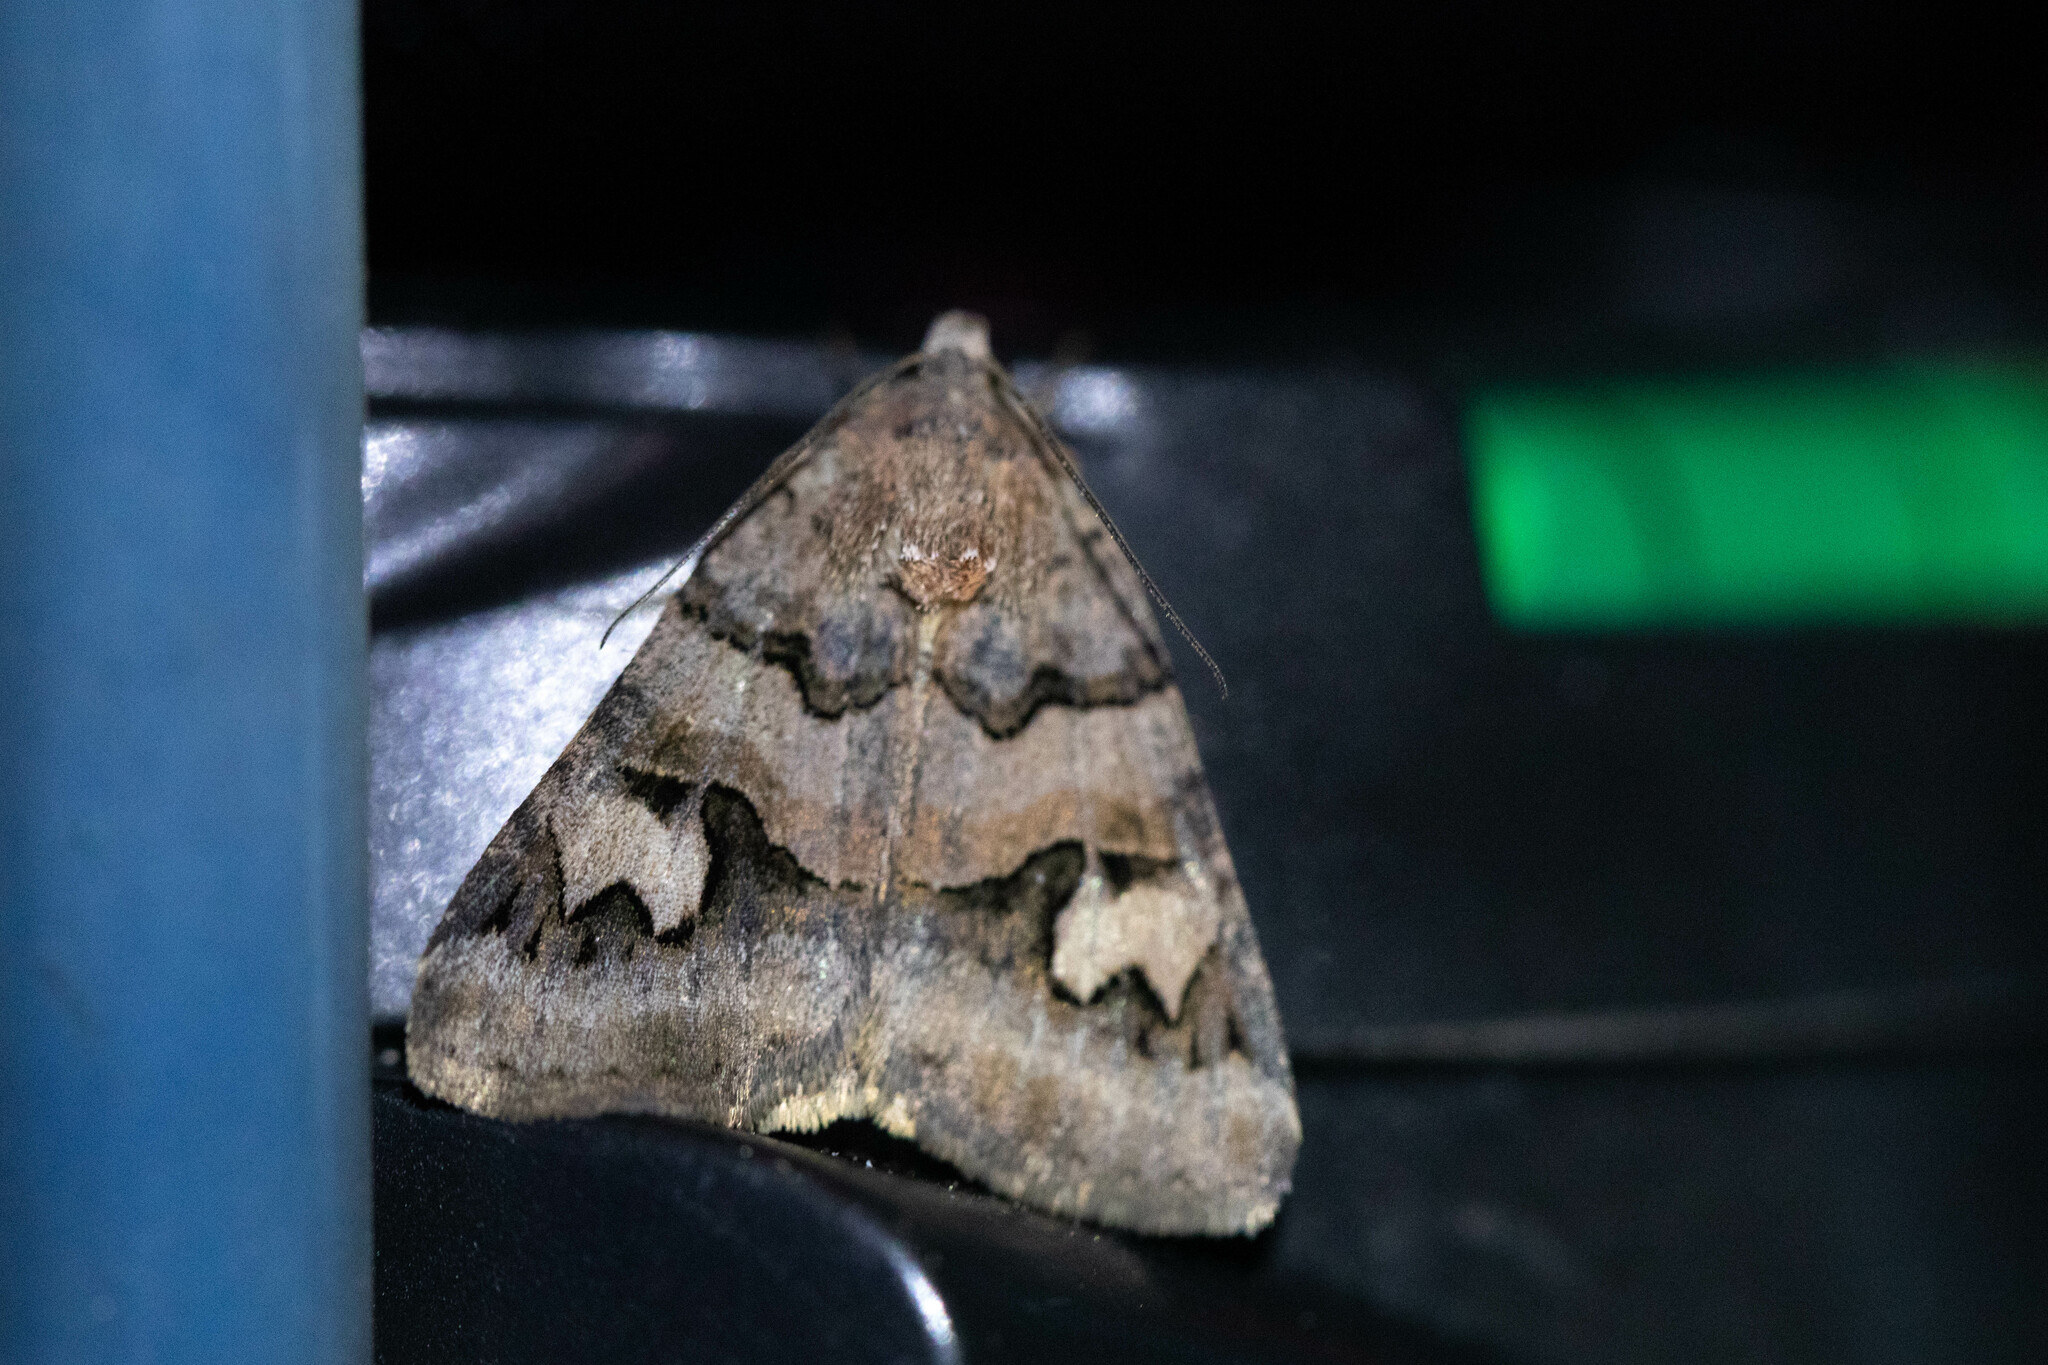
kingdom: Animalia
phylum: Arthropoda
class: Insecta
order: Lepidoptera
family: Erebidae
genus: Drasteria
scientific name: Drasteria adumbrata
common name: Shadowy arches
